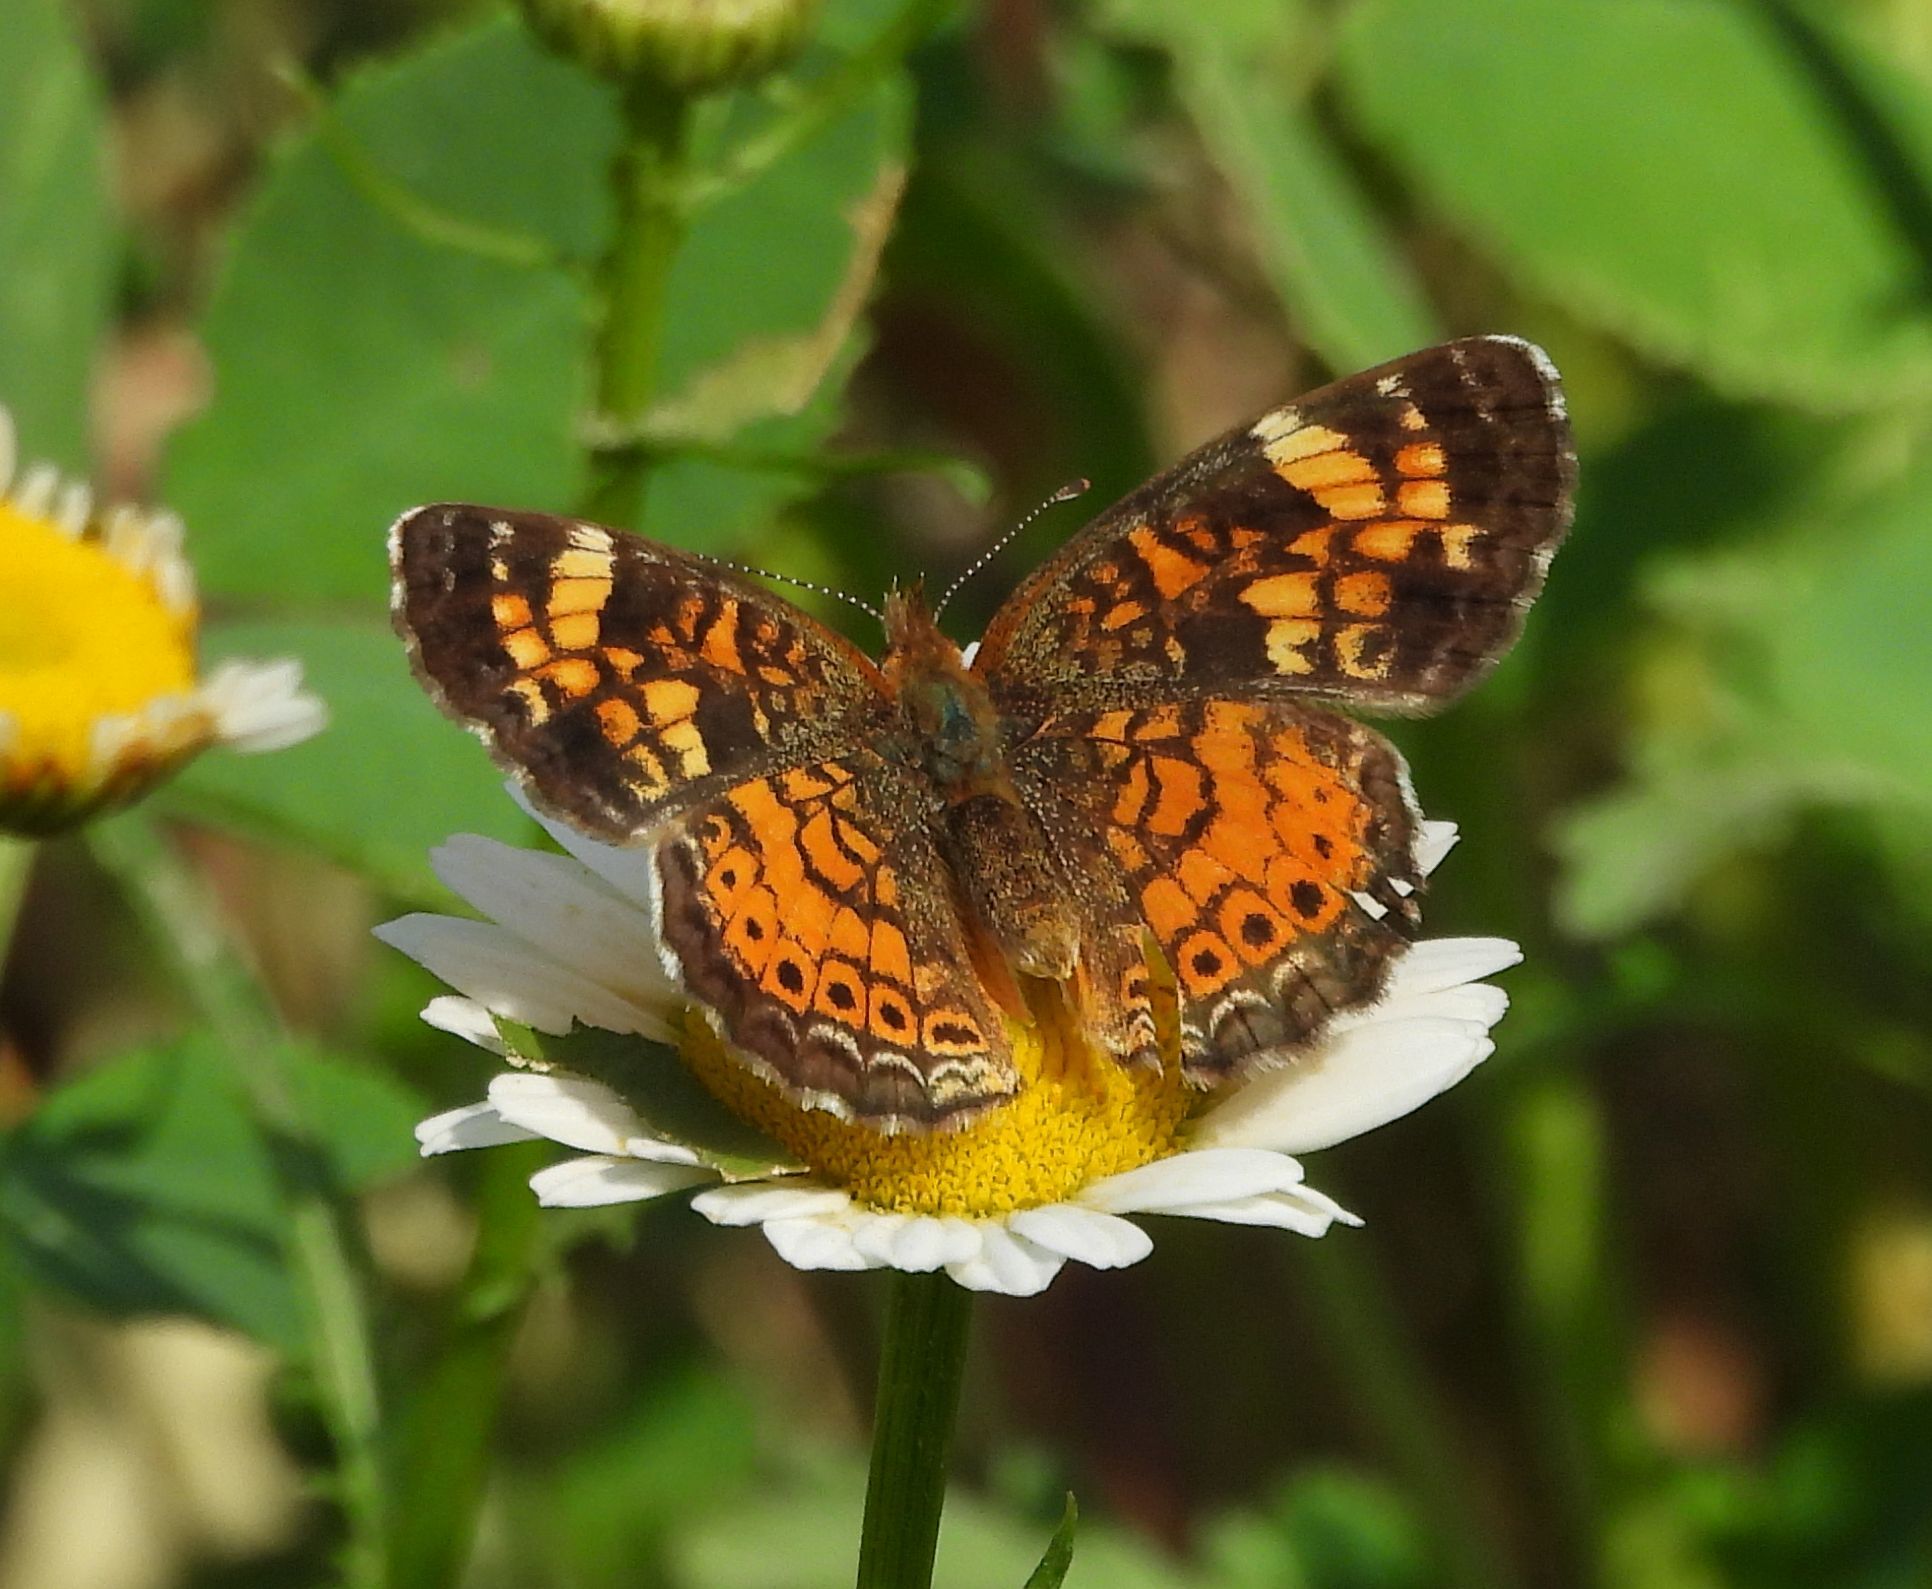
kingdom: Animalia
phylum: Arthropoda
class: Insecta
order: Lepidoptera
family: Nymphalidae
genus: Phyciodes
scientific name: Phyciodes tharos
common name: Pearl crescent
